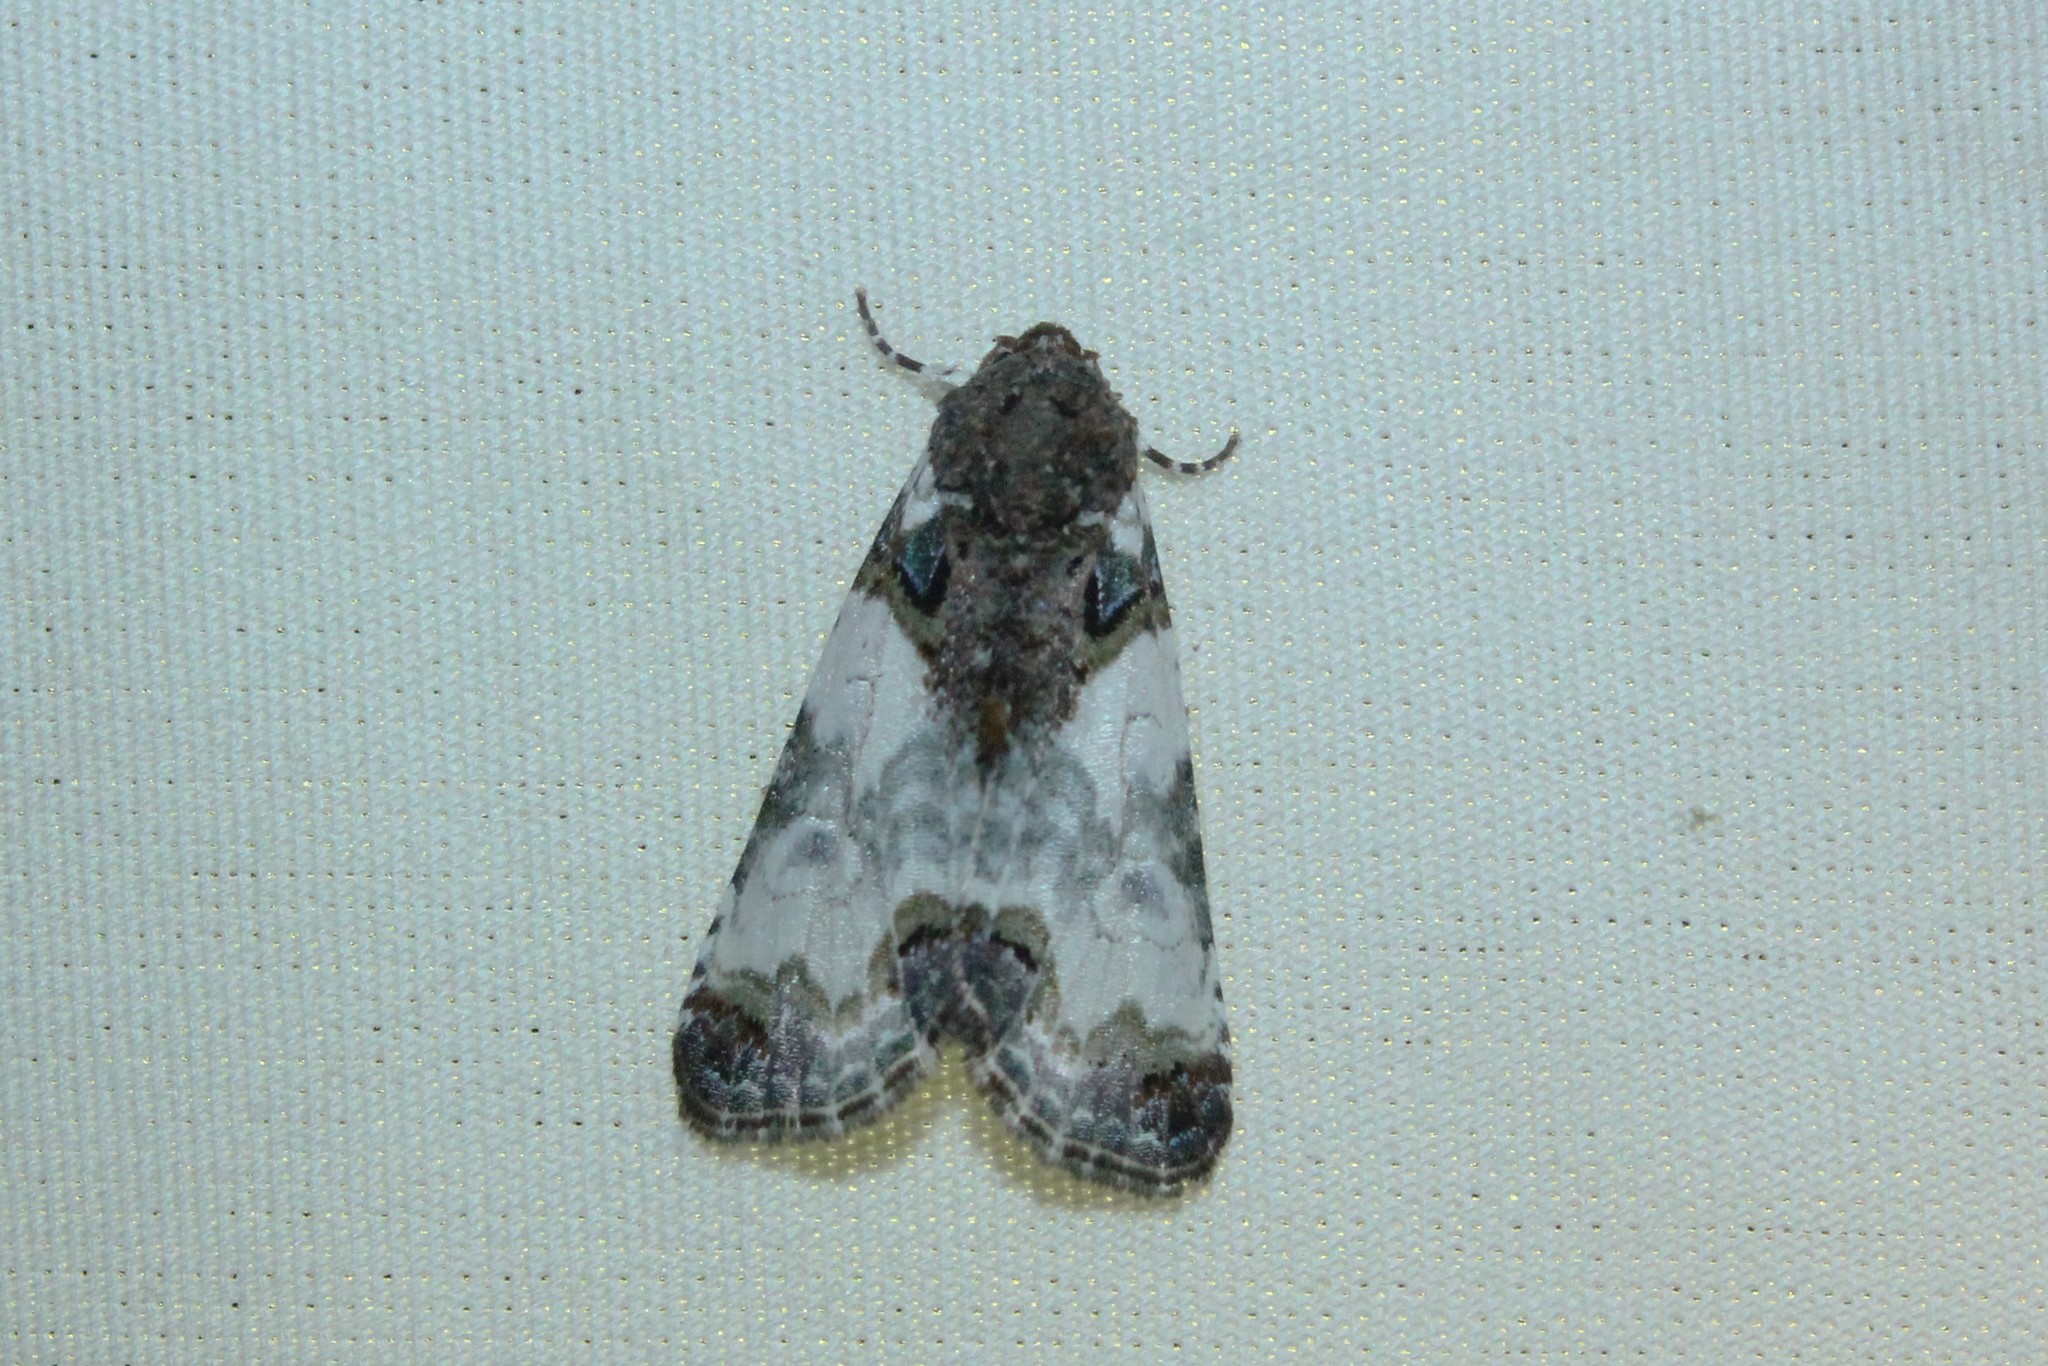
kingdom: Animalia
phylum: Arthropoda
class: Insecta
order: Lepidoptera
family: Noctuidae
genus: Cerma
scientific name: Cerma cerintha
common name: Tufted bird-dropping moth
